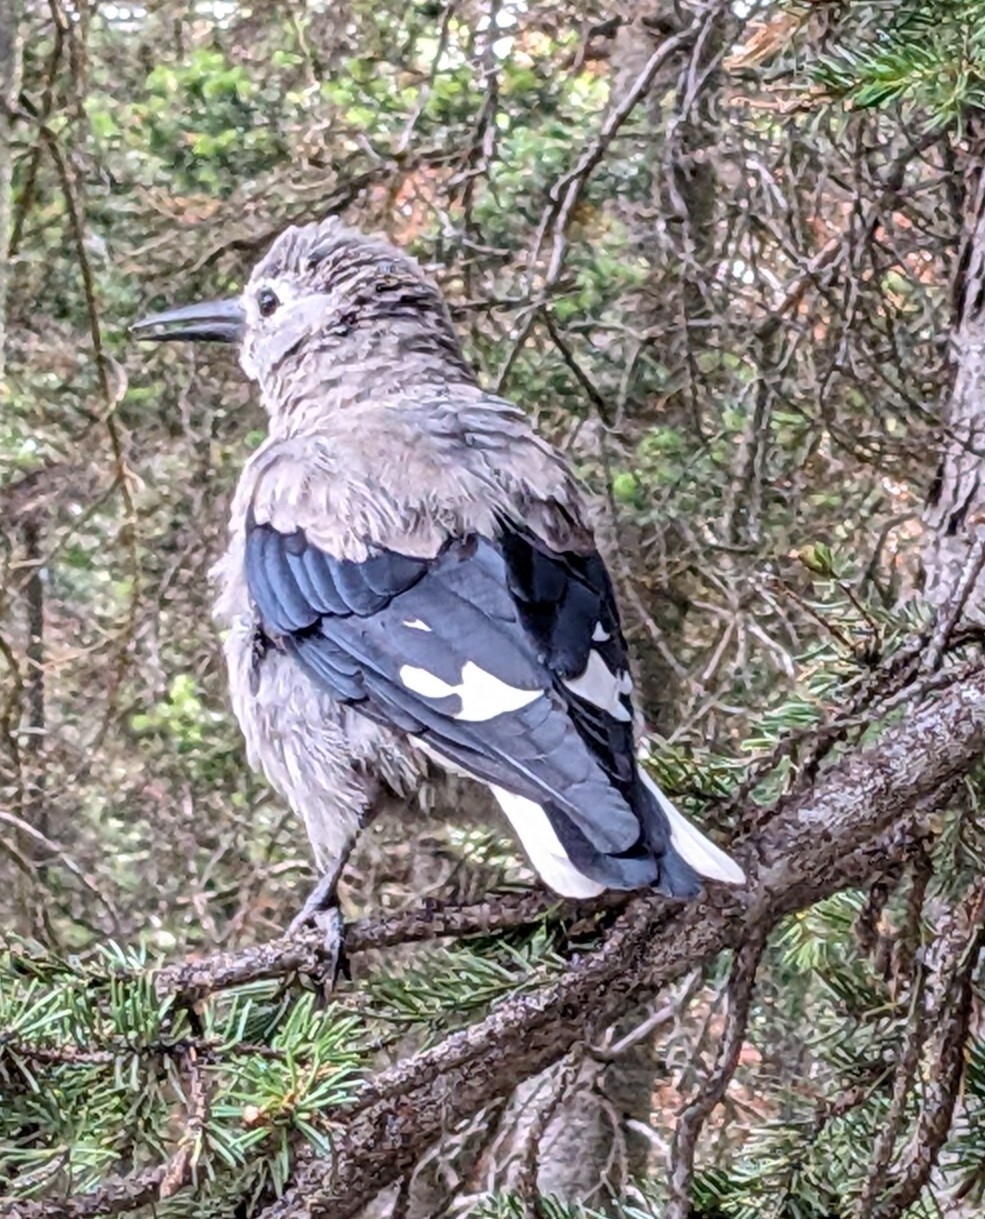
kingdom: Animalia
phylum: Chordata
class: Aves
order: Passeriformes
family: Corvidae
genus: Nucifraga
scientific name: Nucifraga columbiana
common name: Clark's nutcracker
